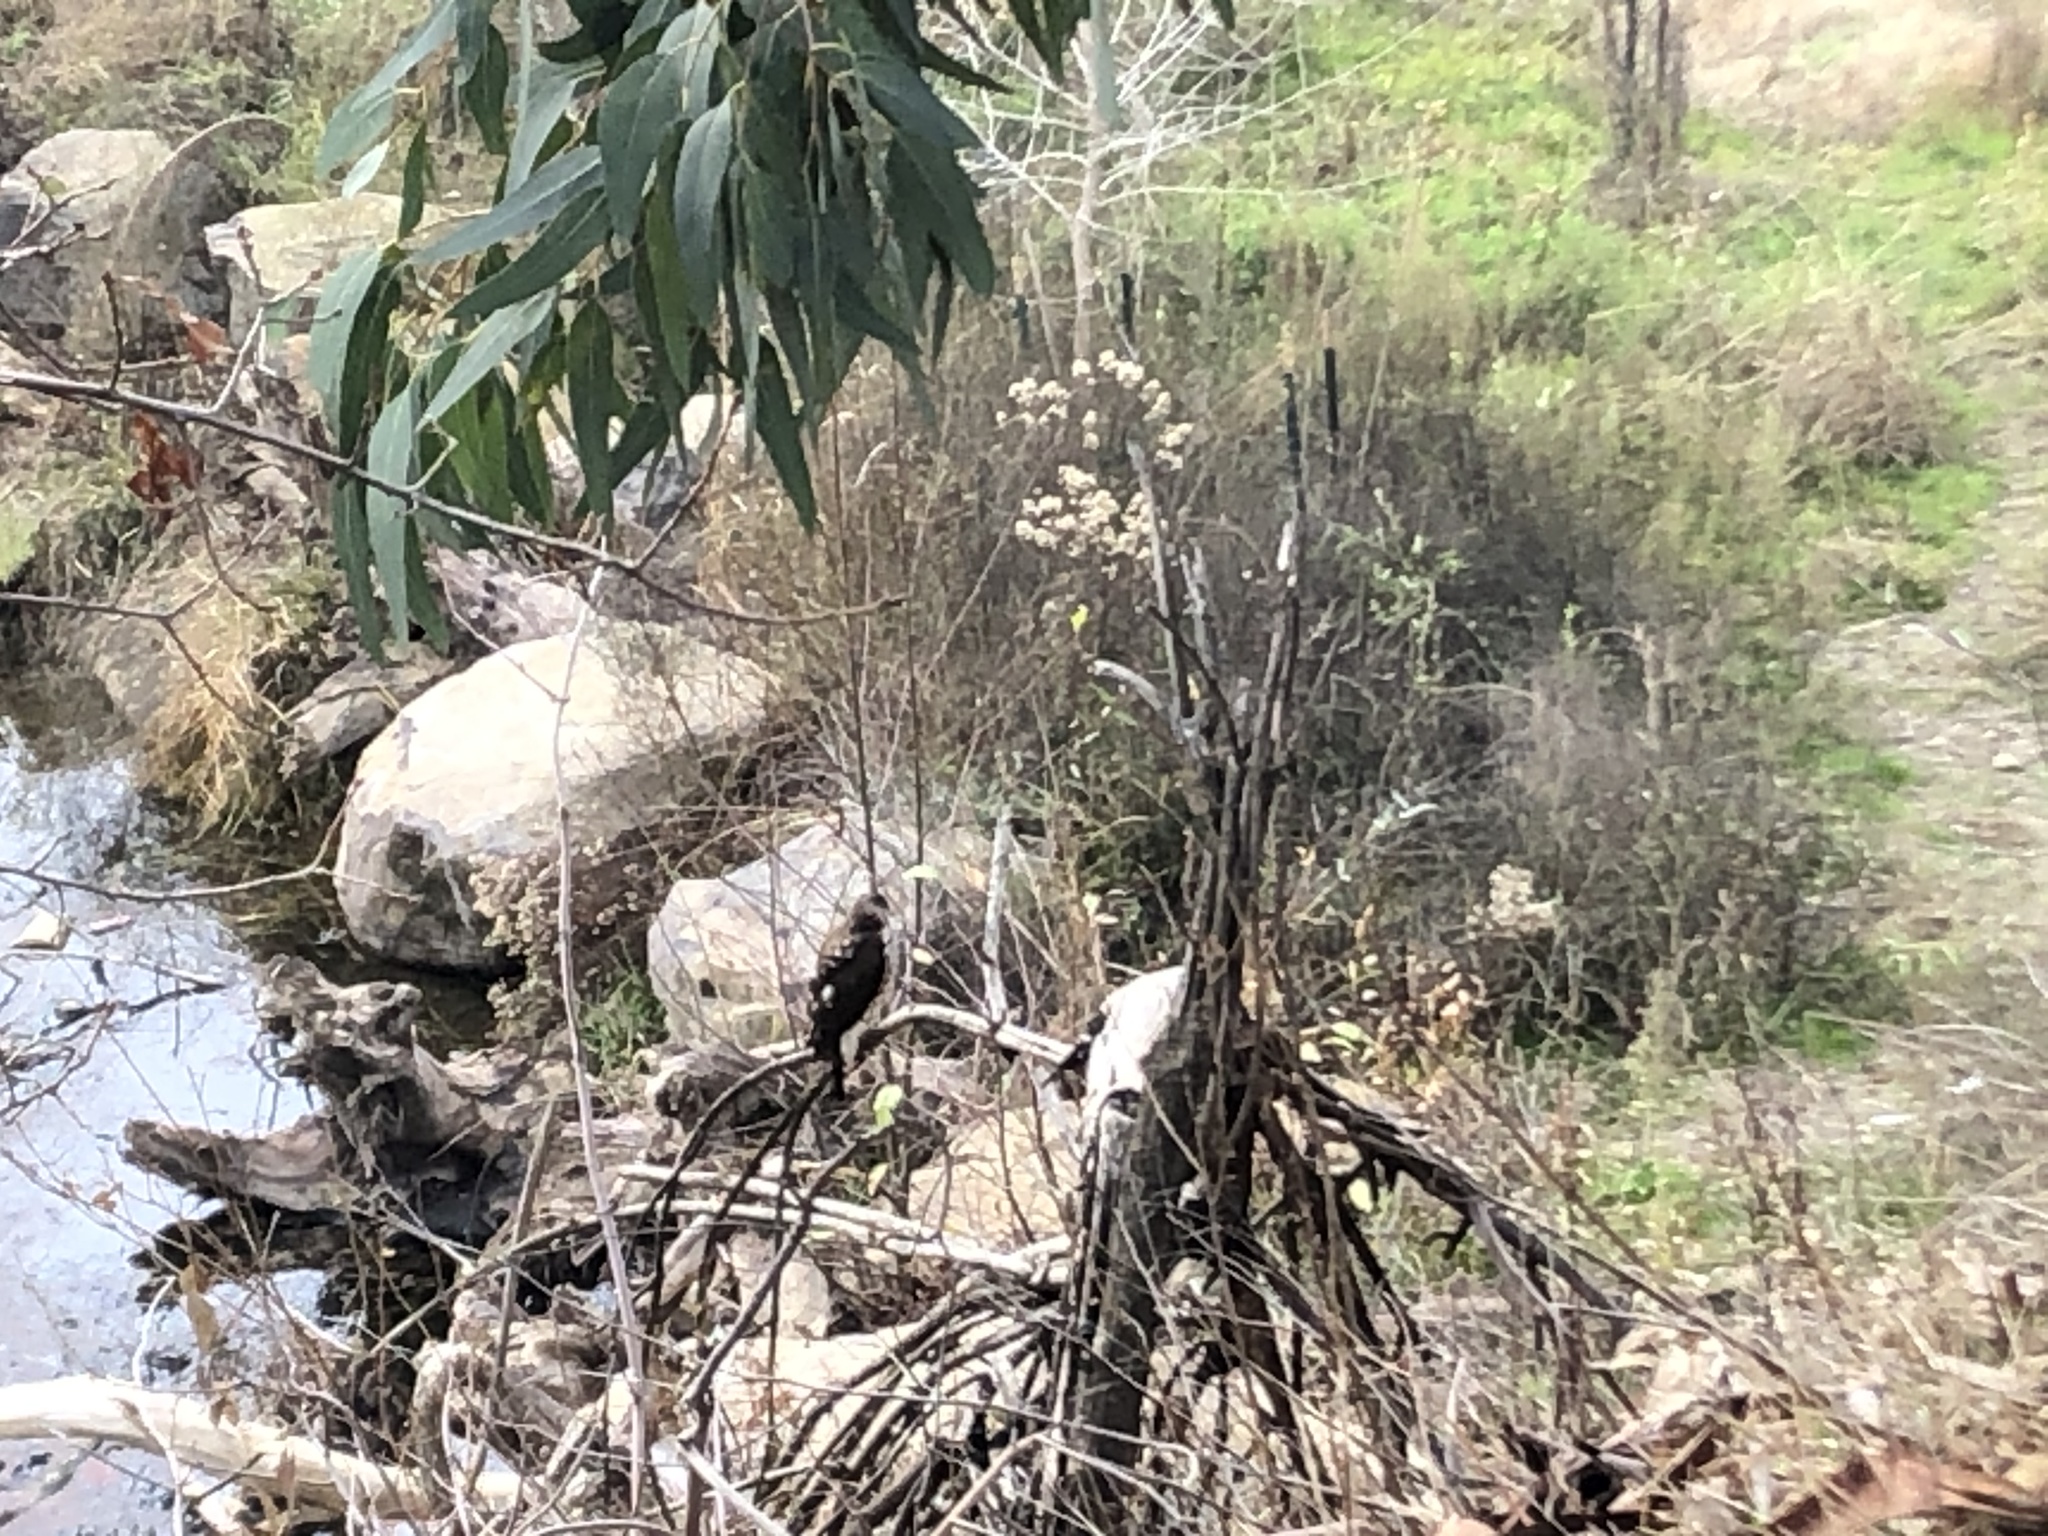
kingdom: Animalia
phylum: Chordata
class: Aves
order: Accipitriformes
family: Accipitridae
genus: Accipiter
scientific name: Accipiter
